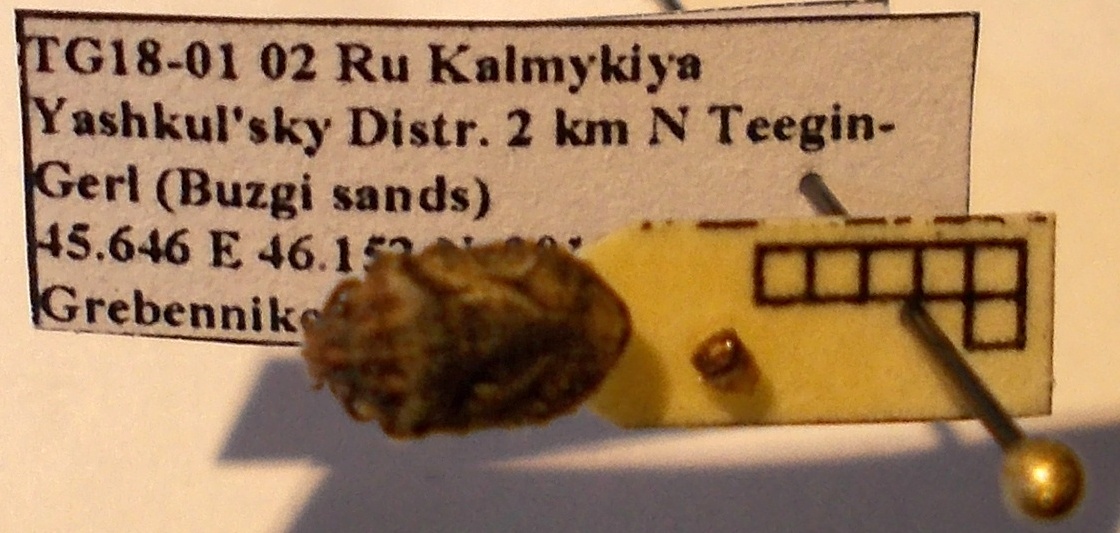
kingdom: Animalia
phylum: Arthropoda
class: Insecta
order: Hemiptera
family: Scutelleridae
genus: Phimodera
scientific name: Phimodera humeralis
